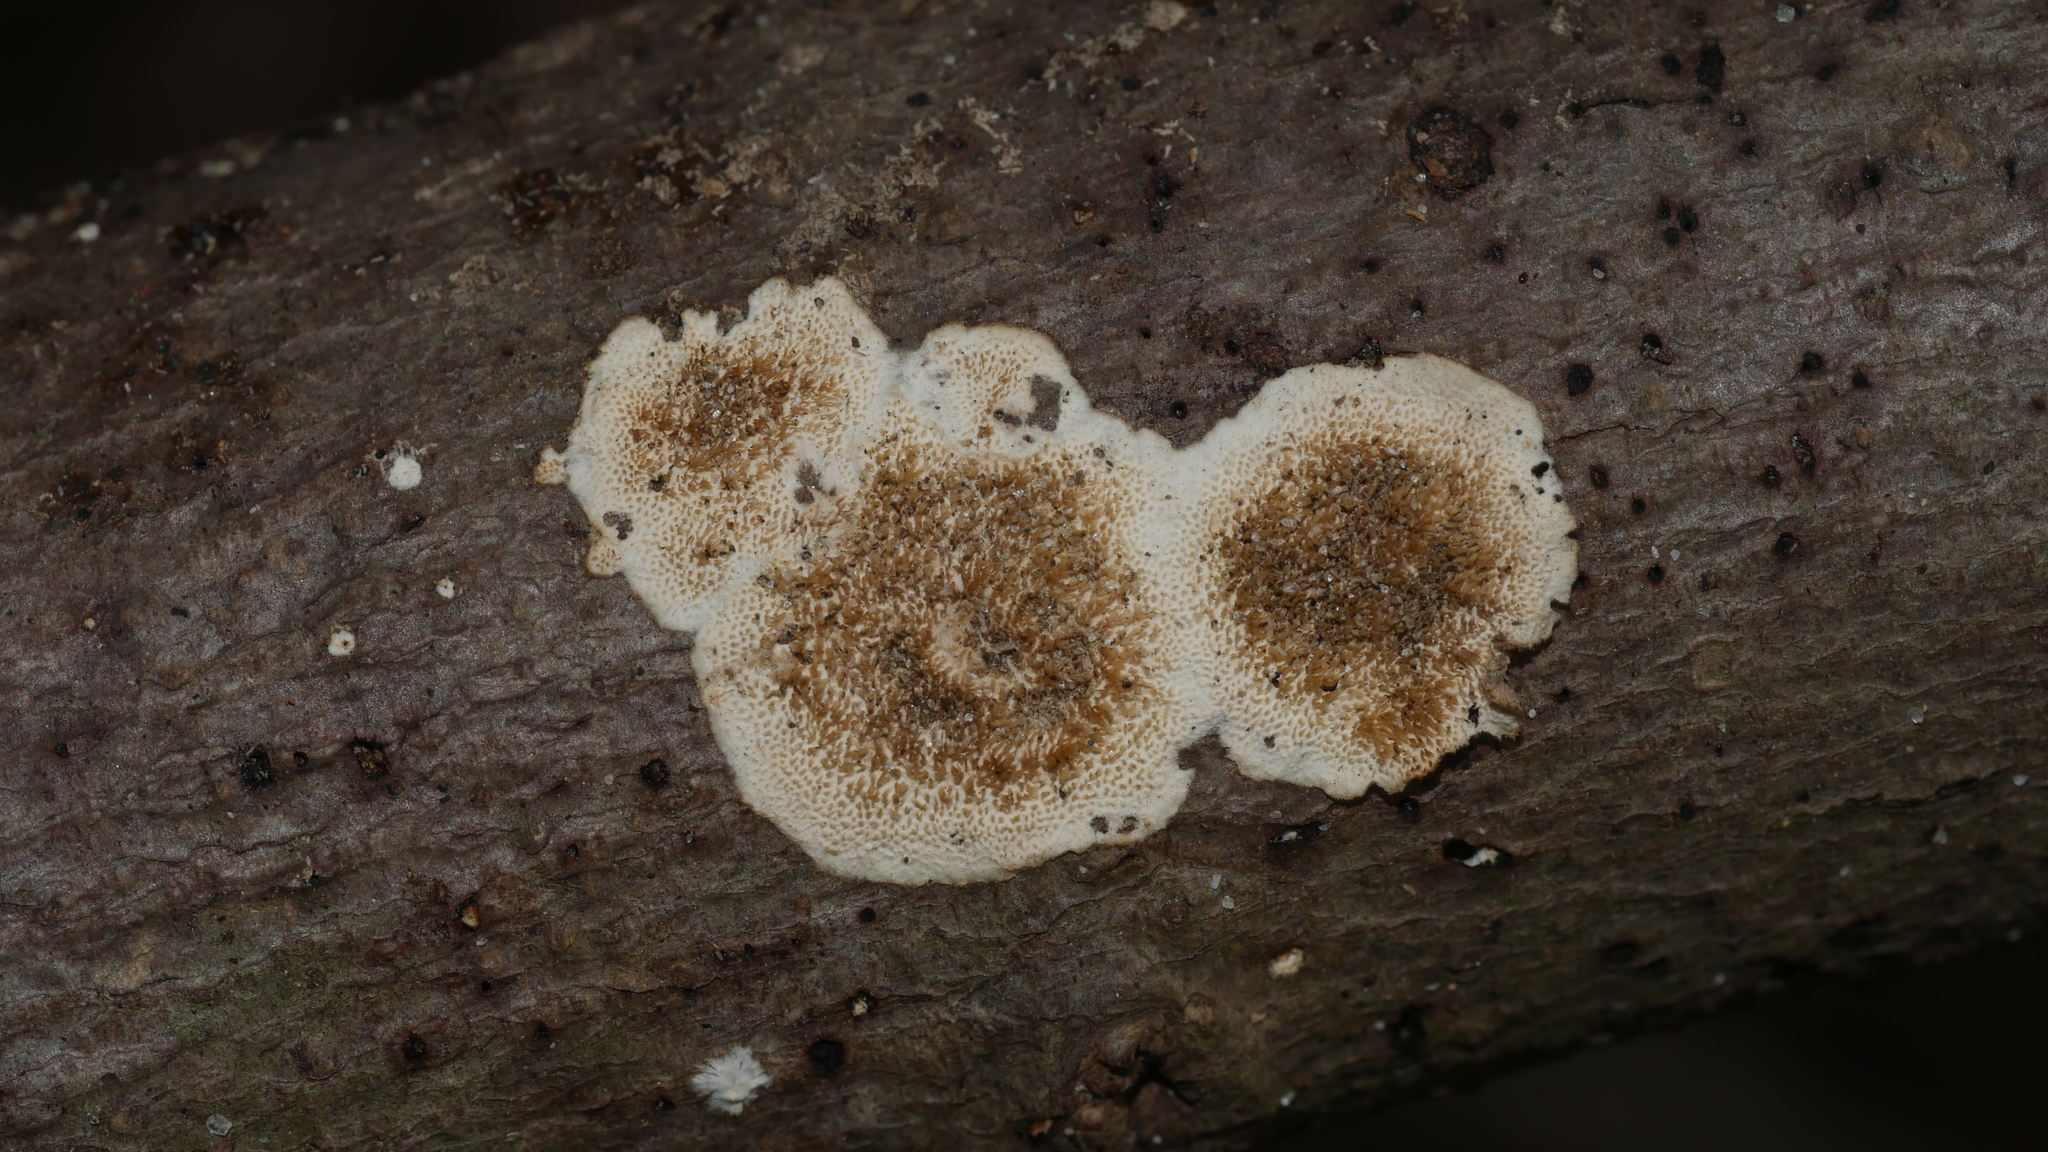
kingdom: Fungi
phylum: Basidiomycota
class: Agaricomycetes
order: Russulales
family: Peniophoraceae
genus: Peniophora
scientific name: Peniophora albobadia
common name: Giraffe spots
